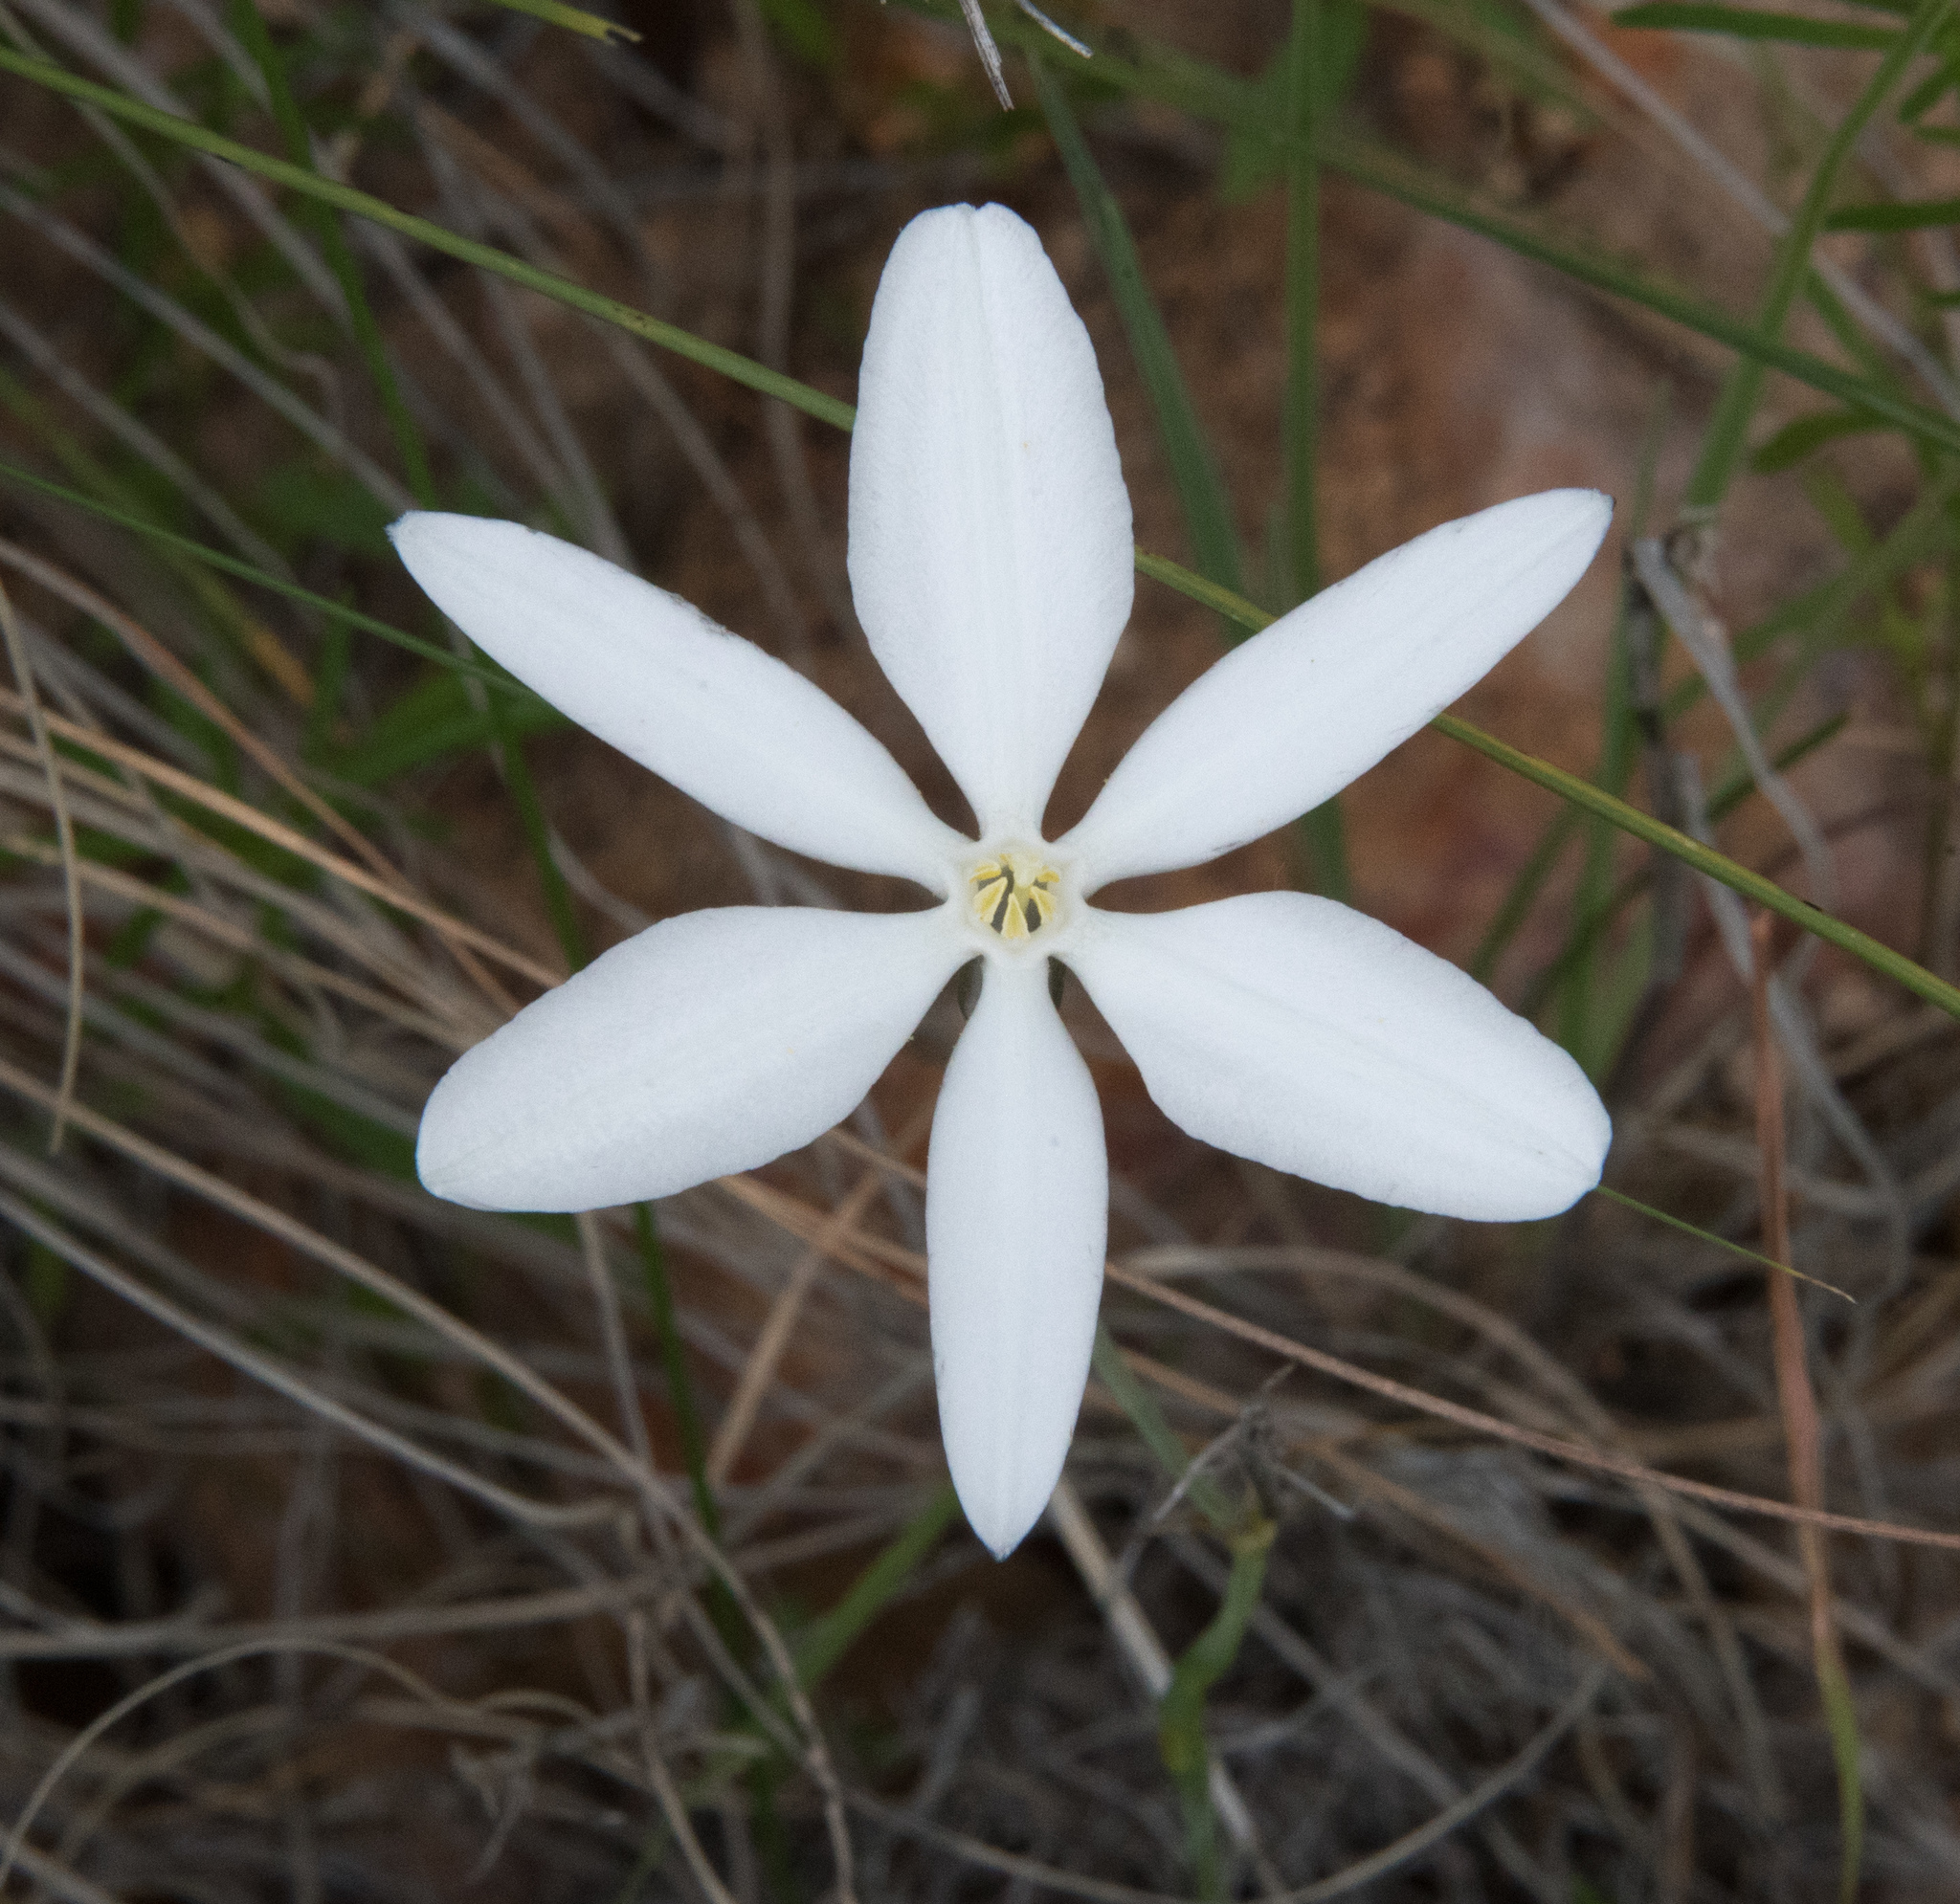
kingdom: Plantae
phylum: Tracheophyta
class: Liliopsida
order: Asparagales
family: Asparagaceae
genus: Milla
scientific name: Milla biflora
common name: Mexican-star
